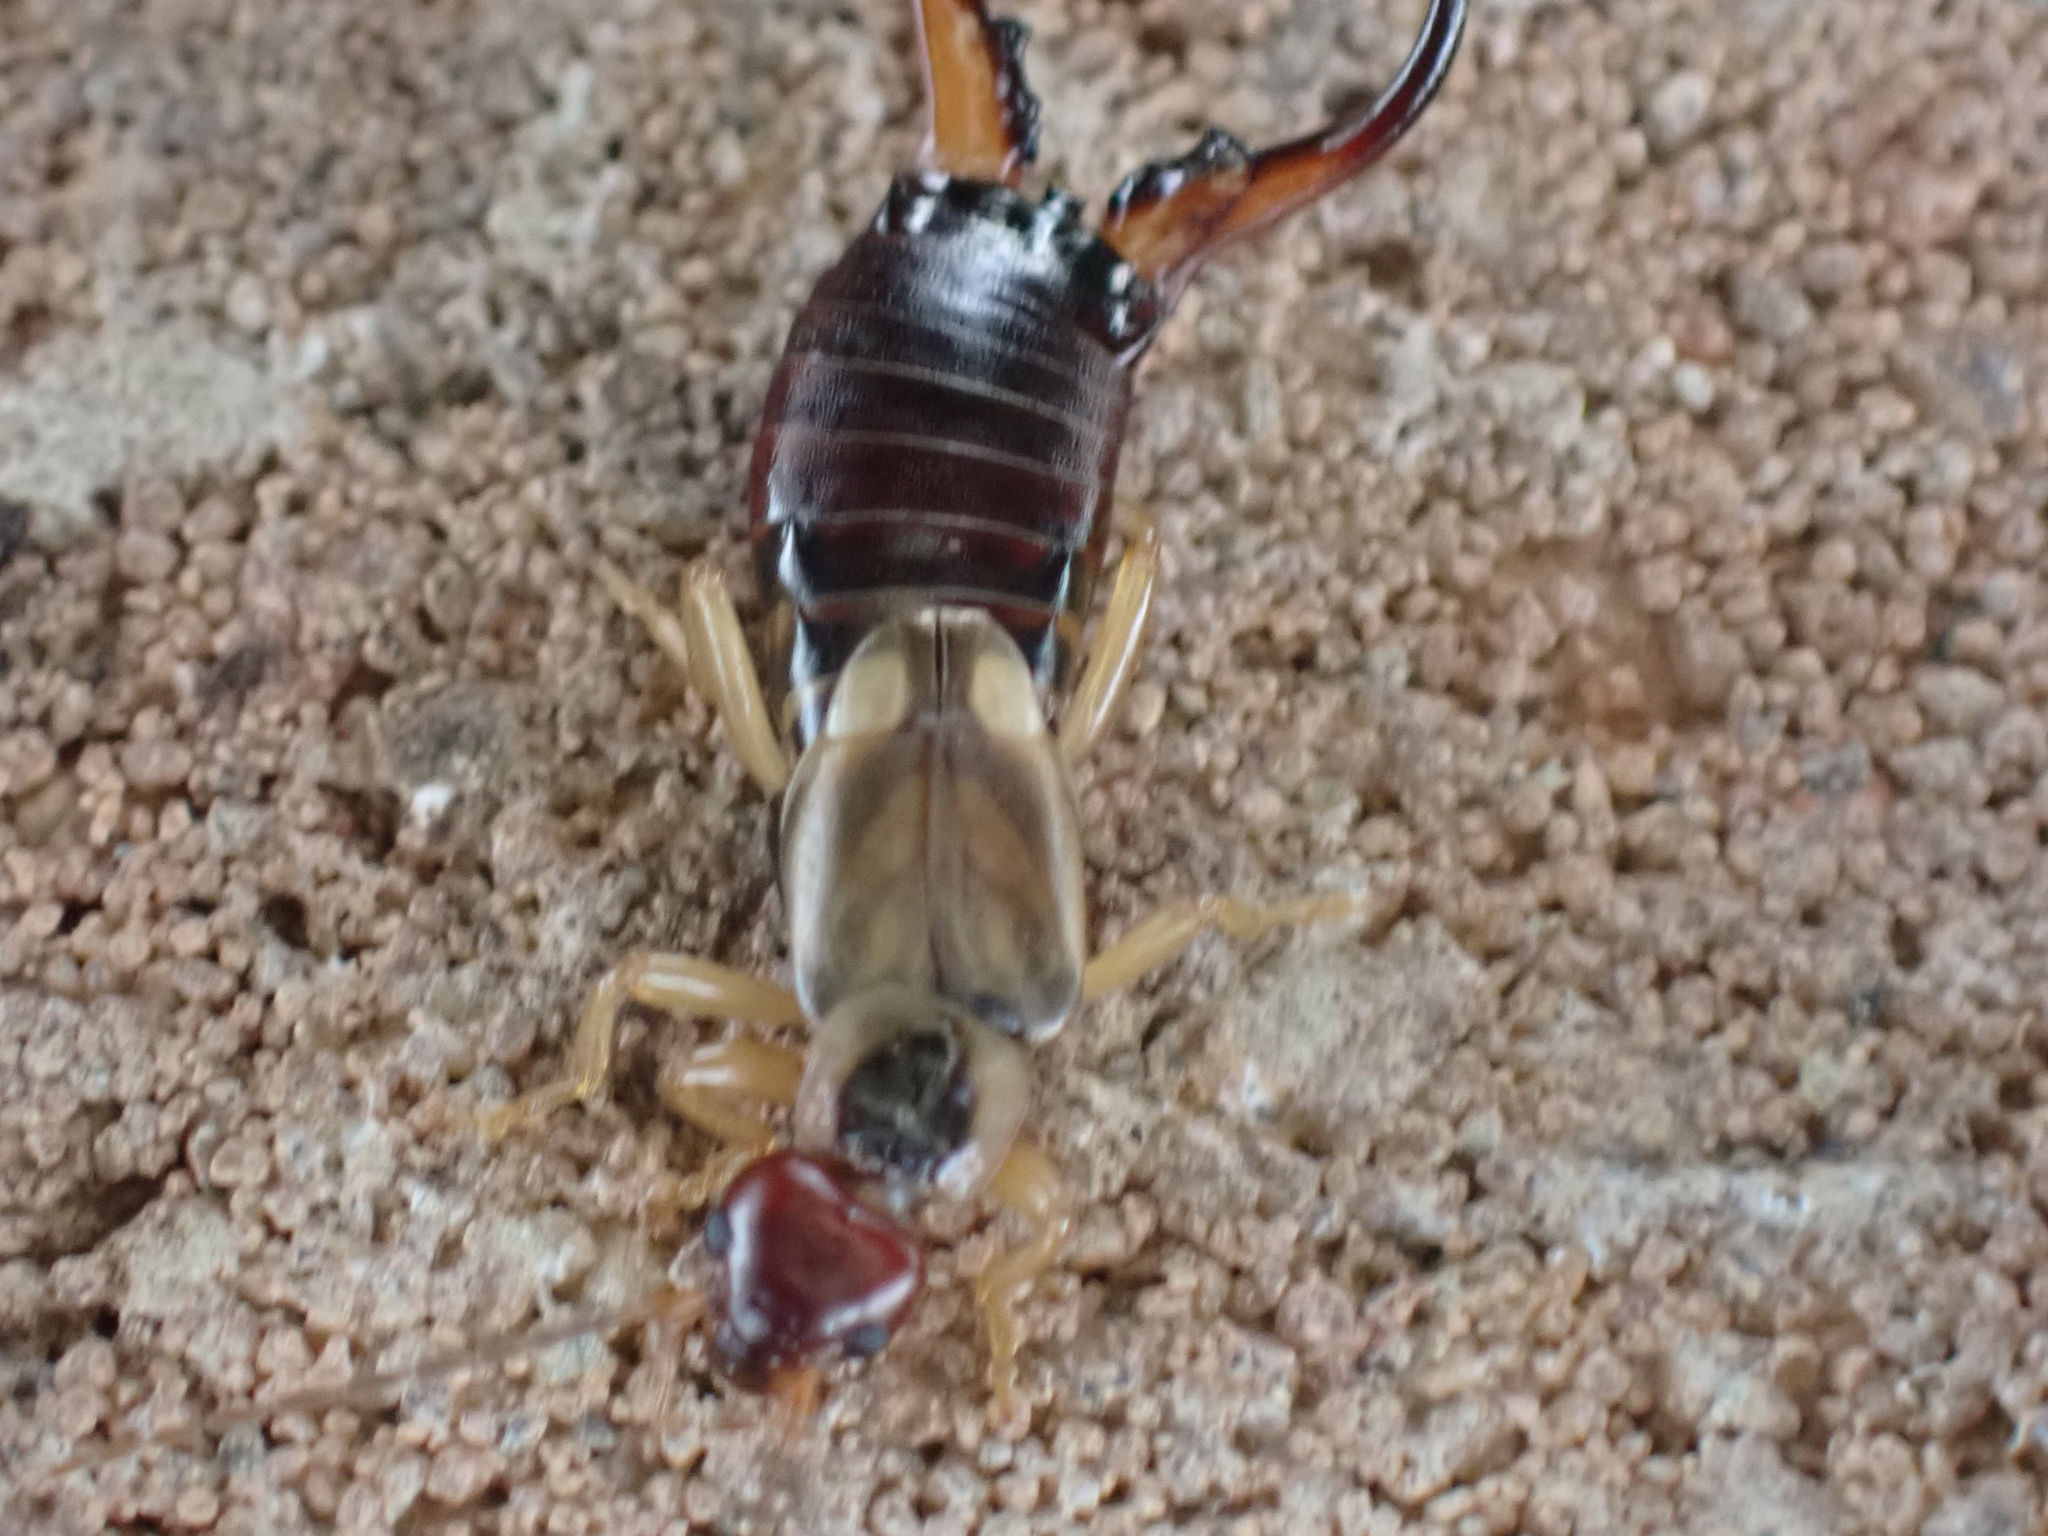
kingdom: Animalia
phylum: Arthropoda
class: Insecta
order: Dermaptera
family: Forficulidae
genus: Forficula
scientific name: Forficula
